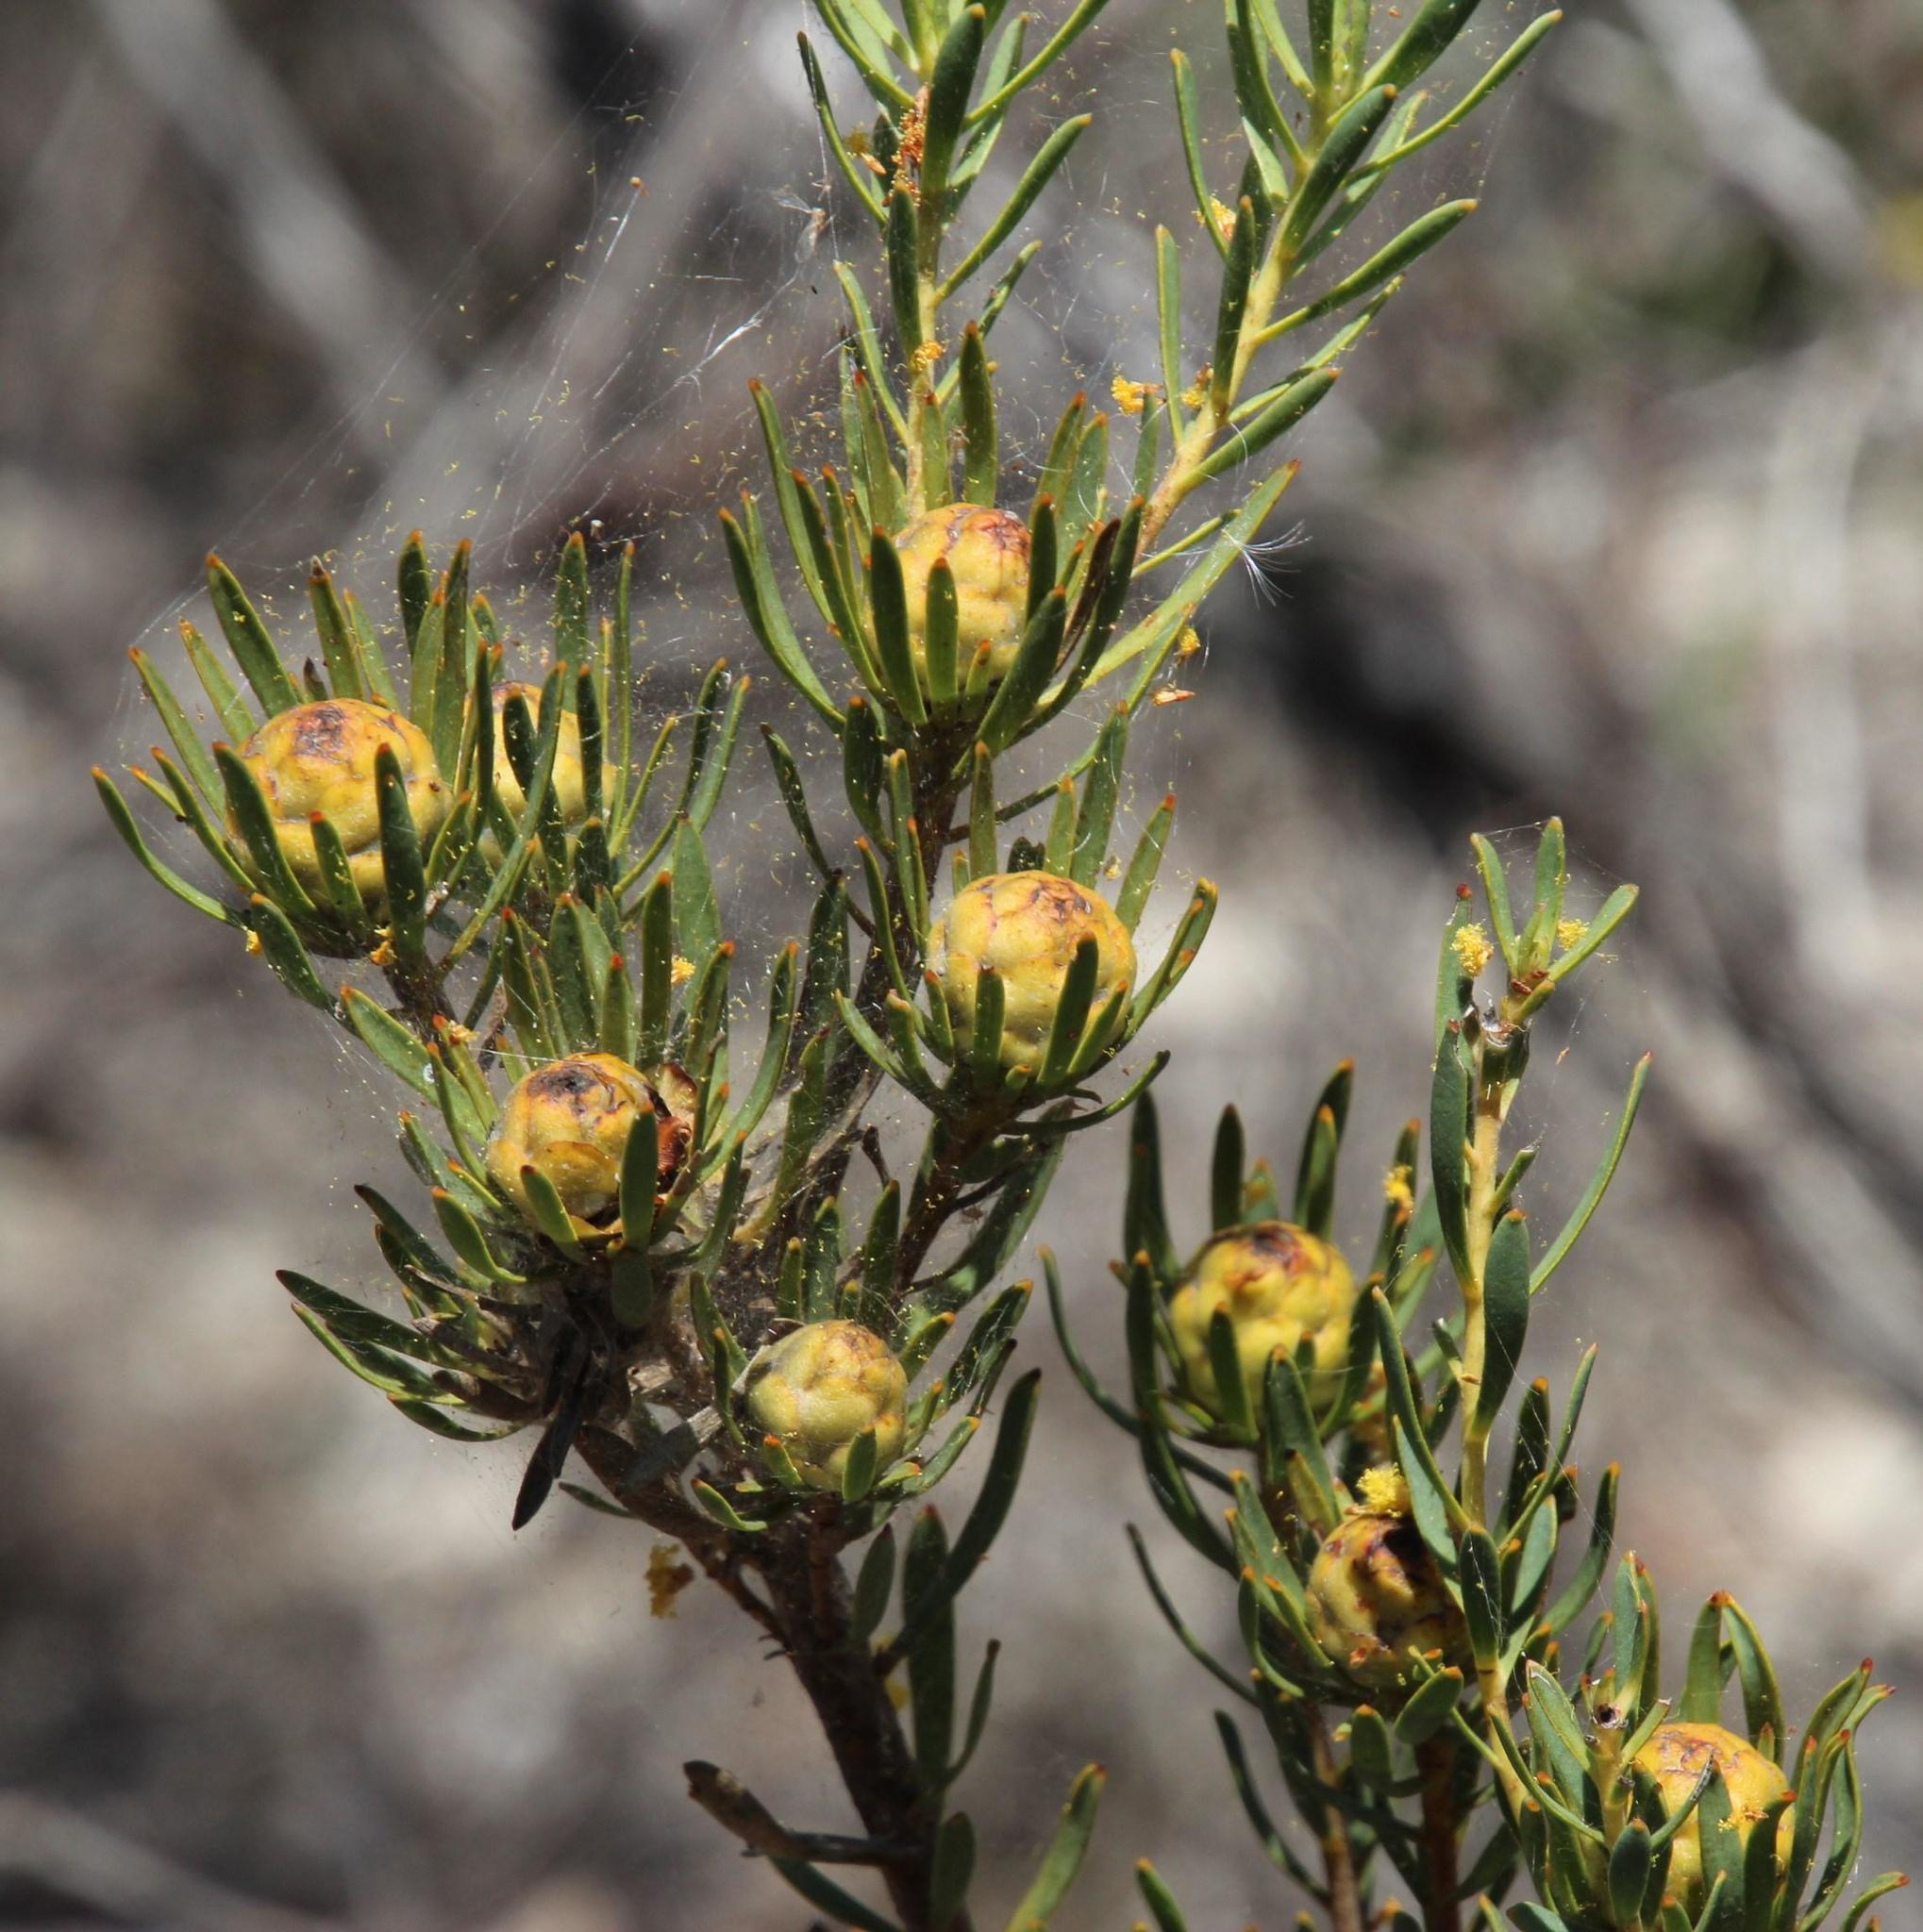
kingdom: Plantae
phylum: Tracheophyta
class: Magnoliopsida
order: Proteales
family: Proteaceae
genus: Leucadendron
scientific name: Leucadendron lanigerum
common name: Shale conebush
